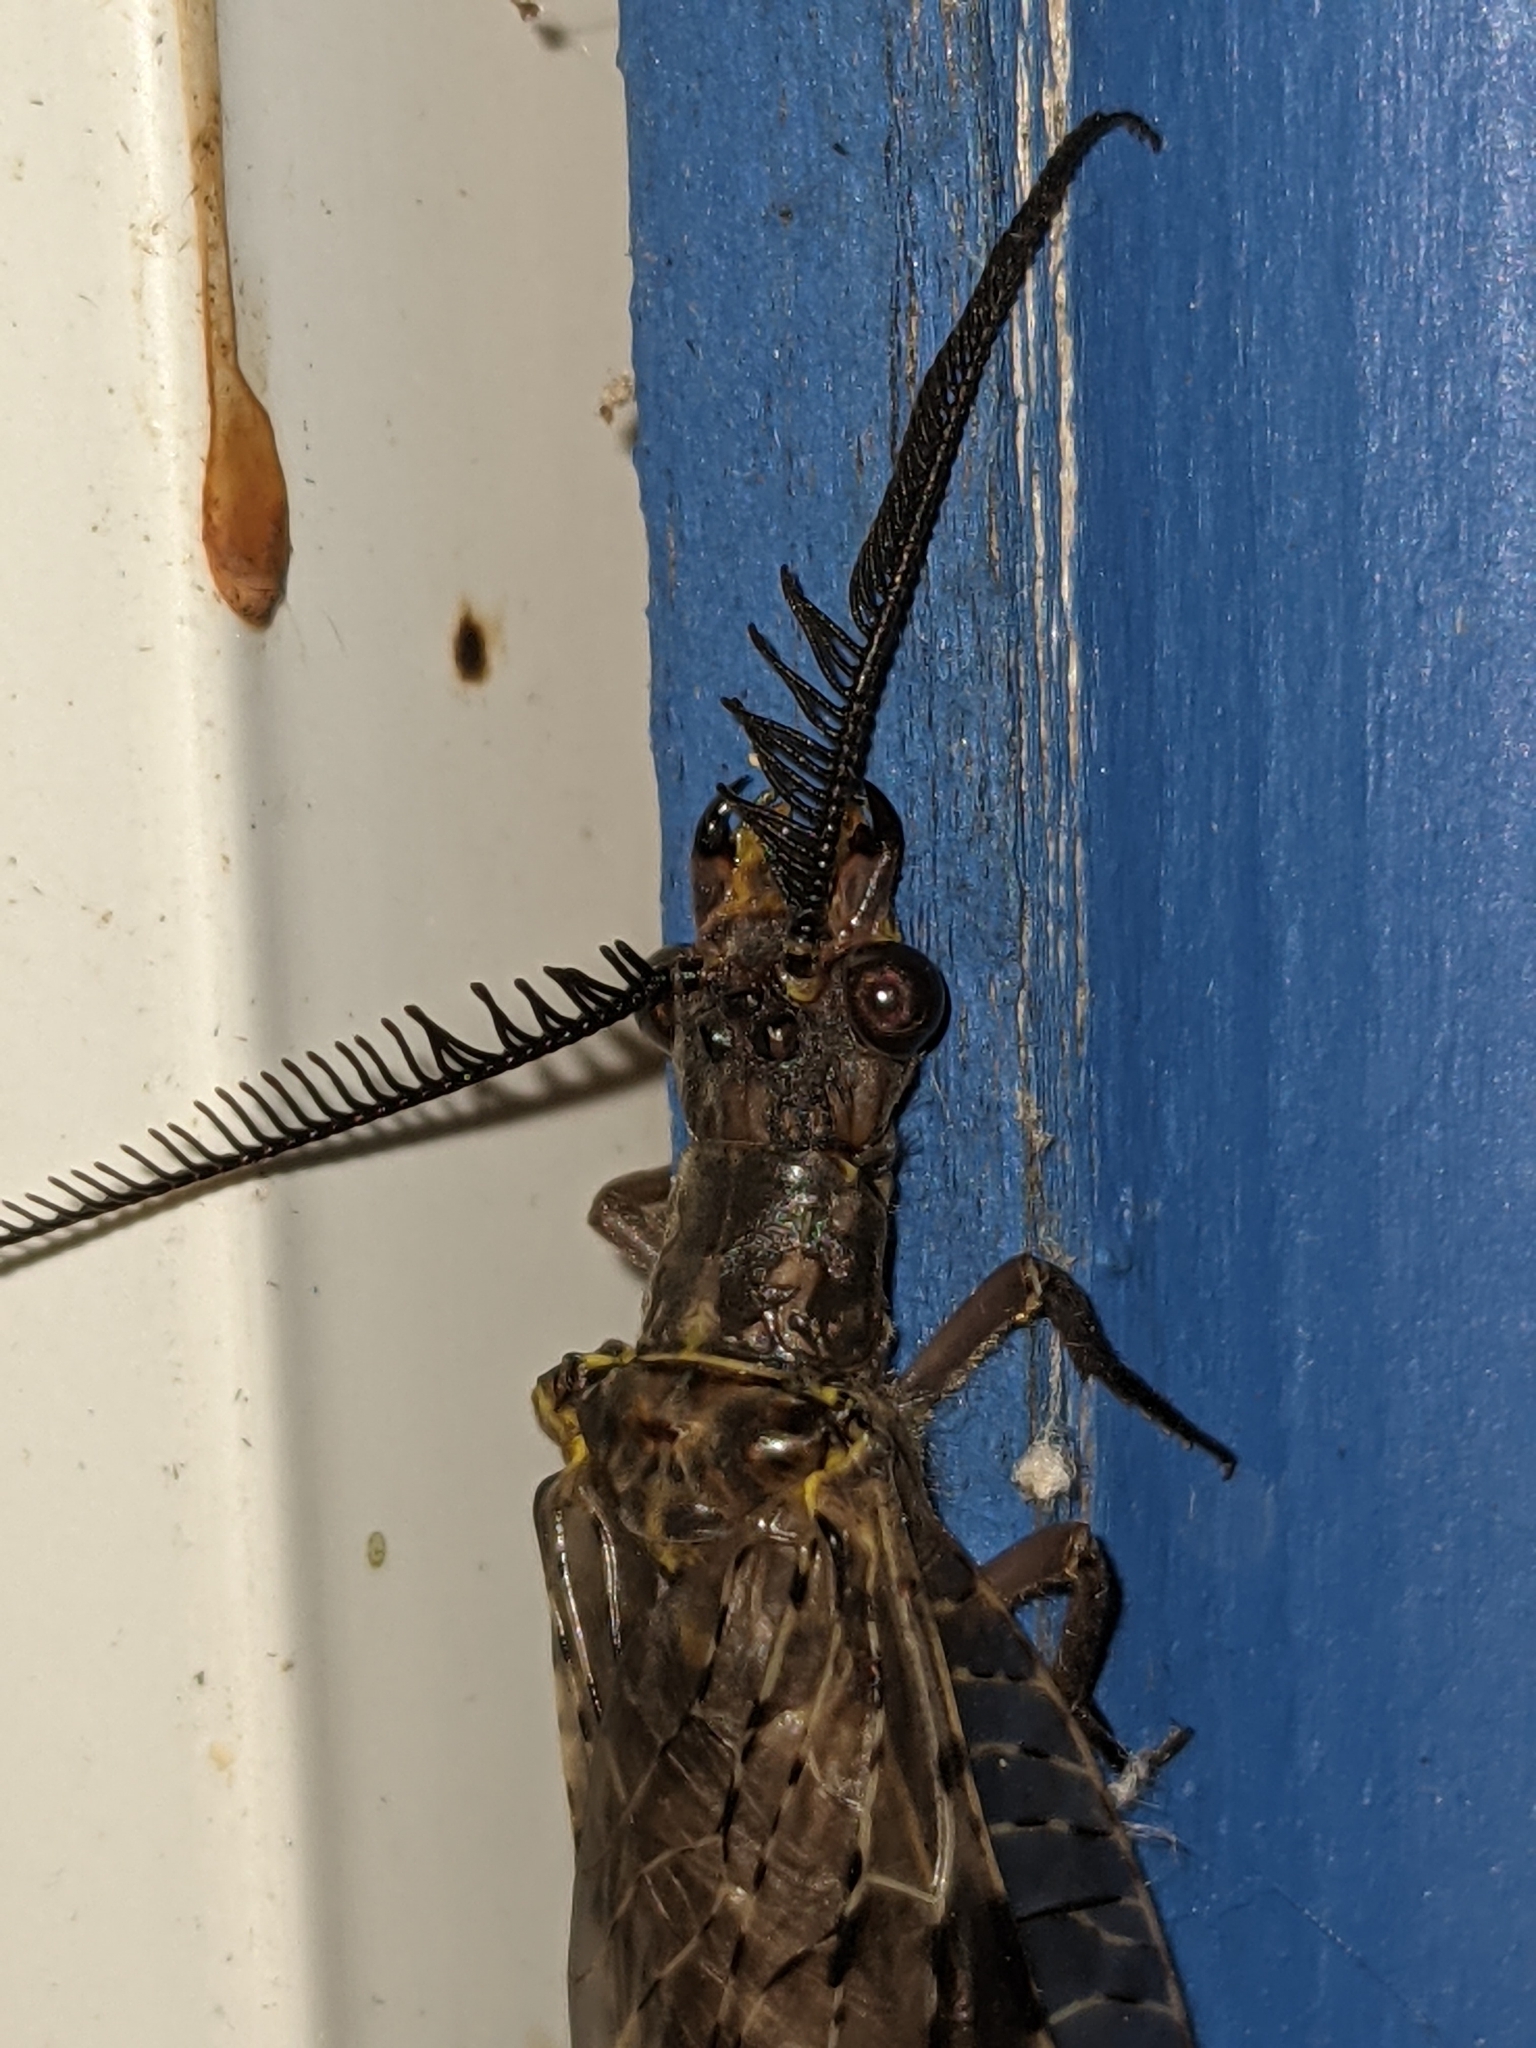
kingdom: Animalia
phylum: Arthropoda
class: Insecta
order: Megaloptera
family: Corydalidae
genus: Chauliodes
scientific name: Chauliodes pectinicornis
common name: Summer fishfly
